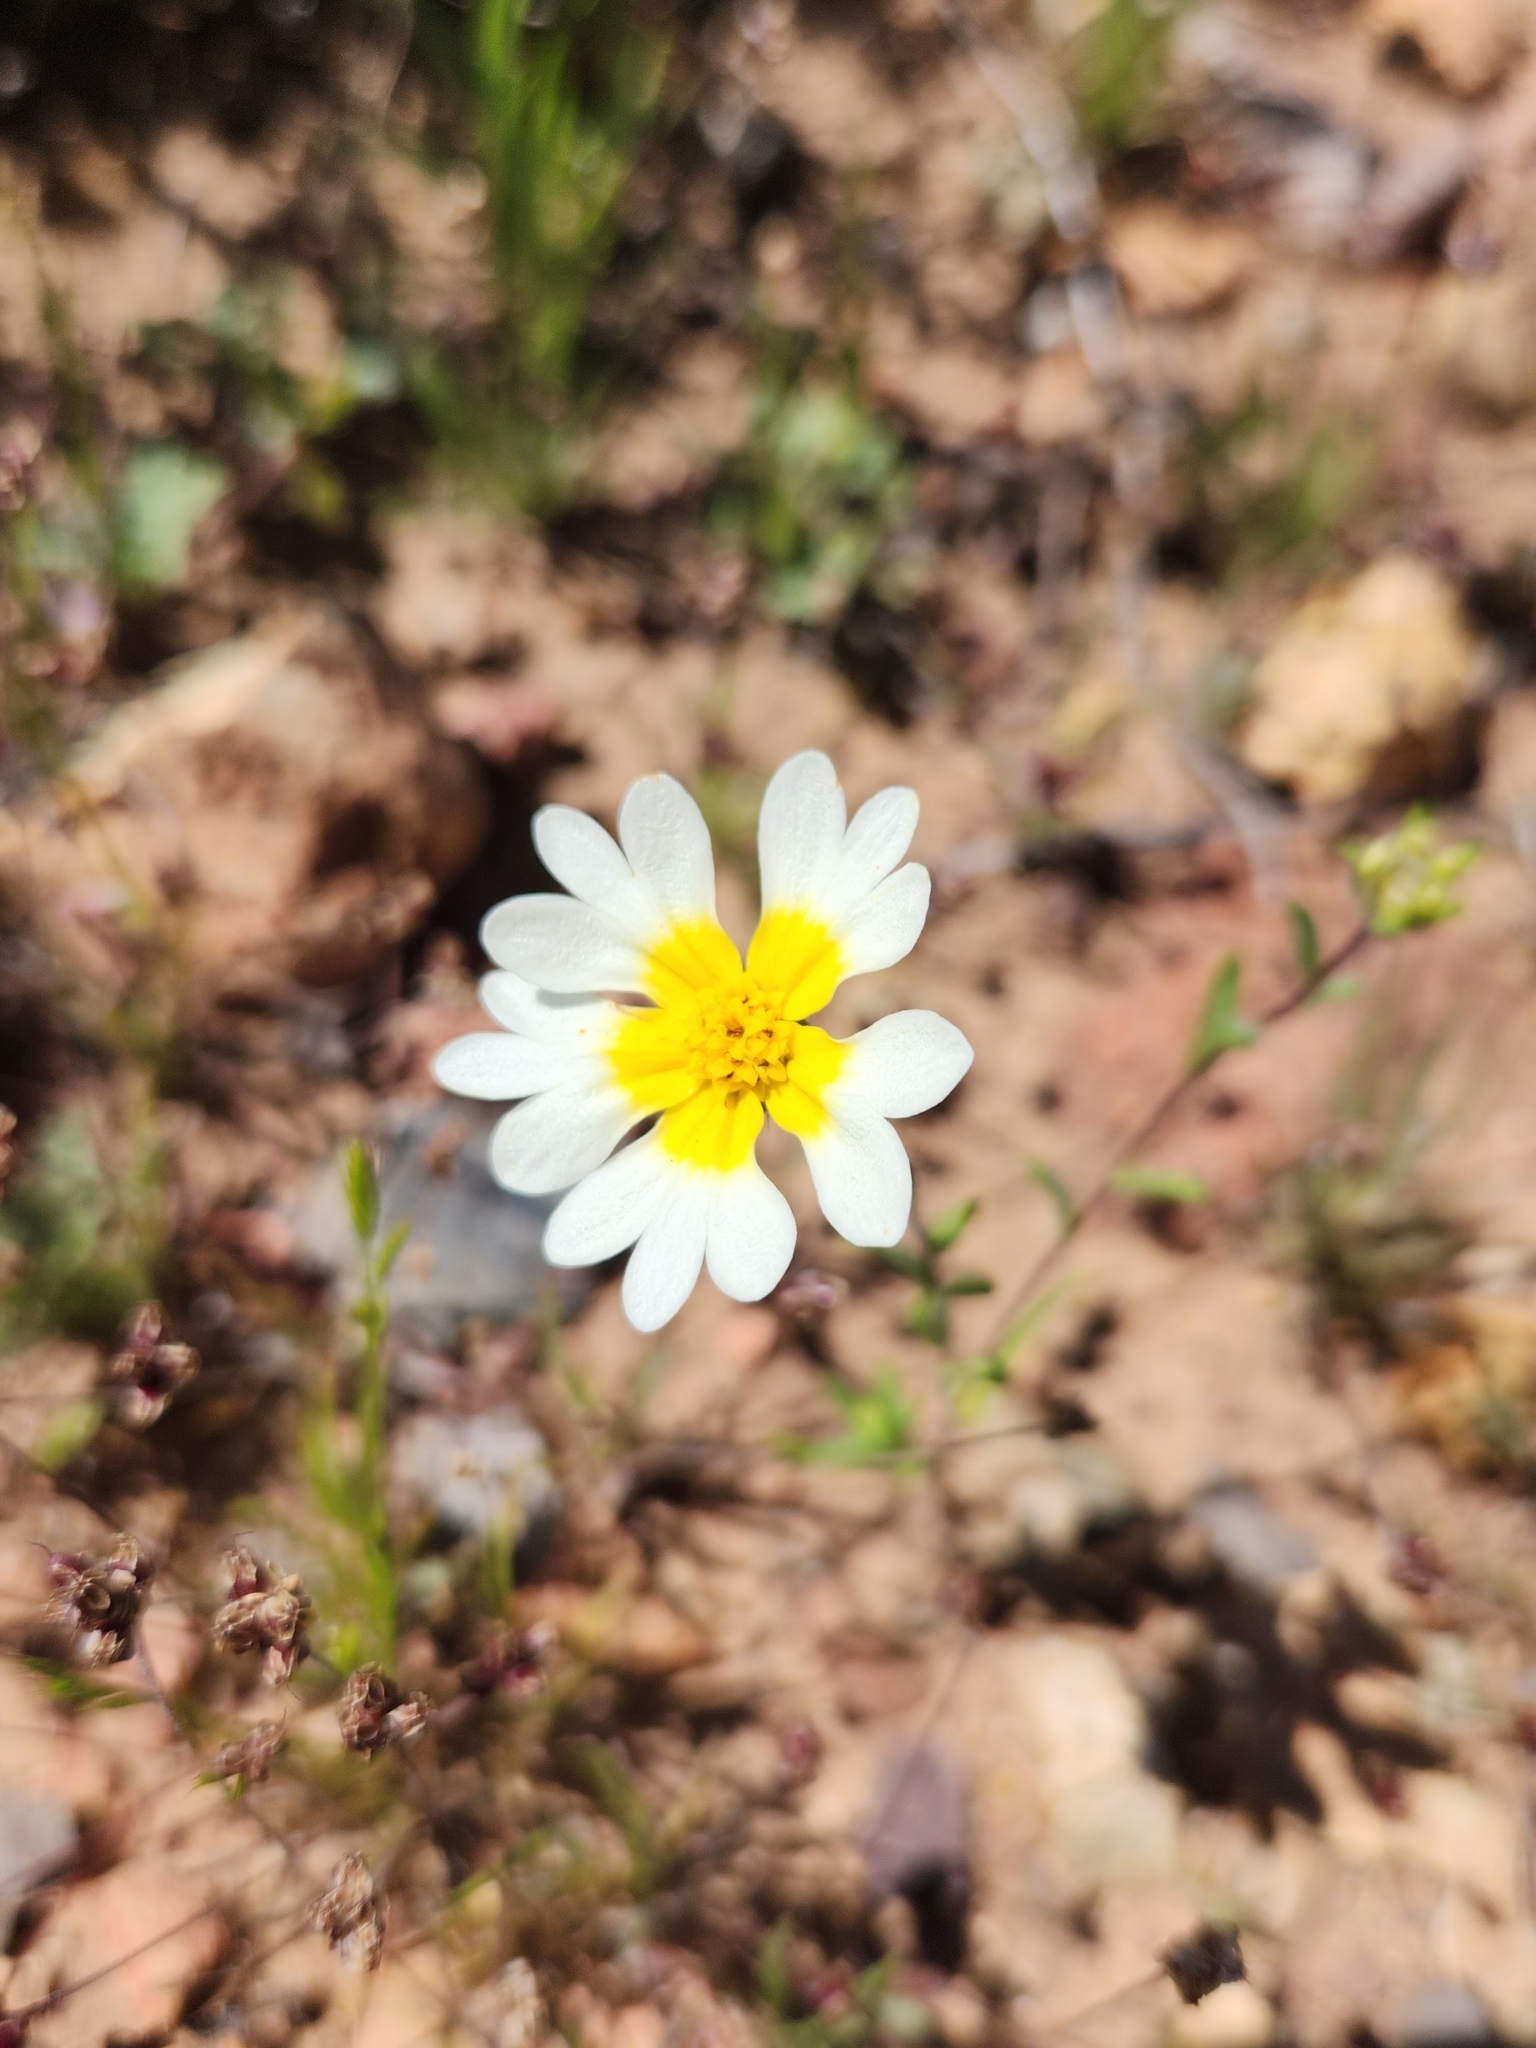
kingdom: Plantae
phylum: Tracheophyta
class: Magnoliopsida
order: Asterales
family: Asteraceae
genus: Layia
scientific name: Layia platyglossa
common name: Tidy-tips
